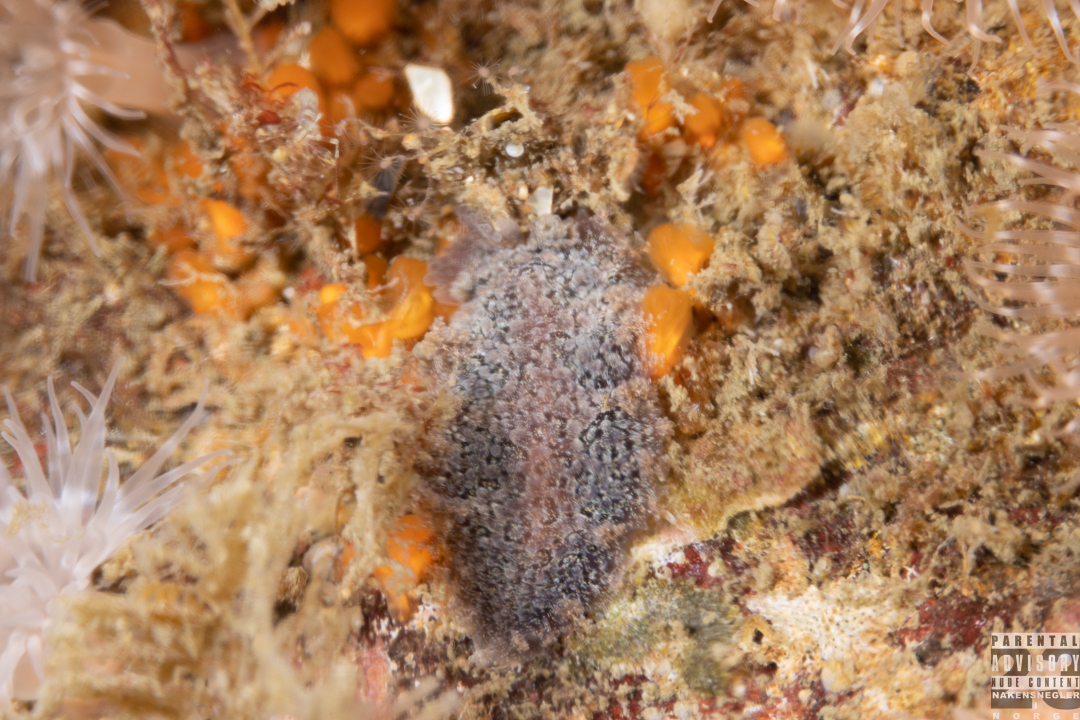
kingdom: Animalia
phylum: Mollusca
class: Gastropoda
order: Nudibranchia
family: Tritoniidae
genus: Tritonia
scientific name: Tritonia hombergii
